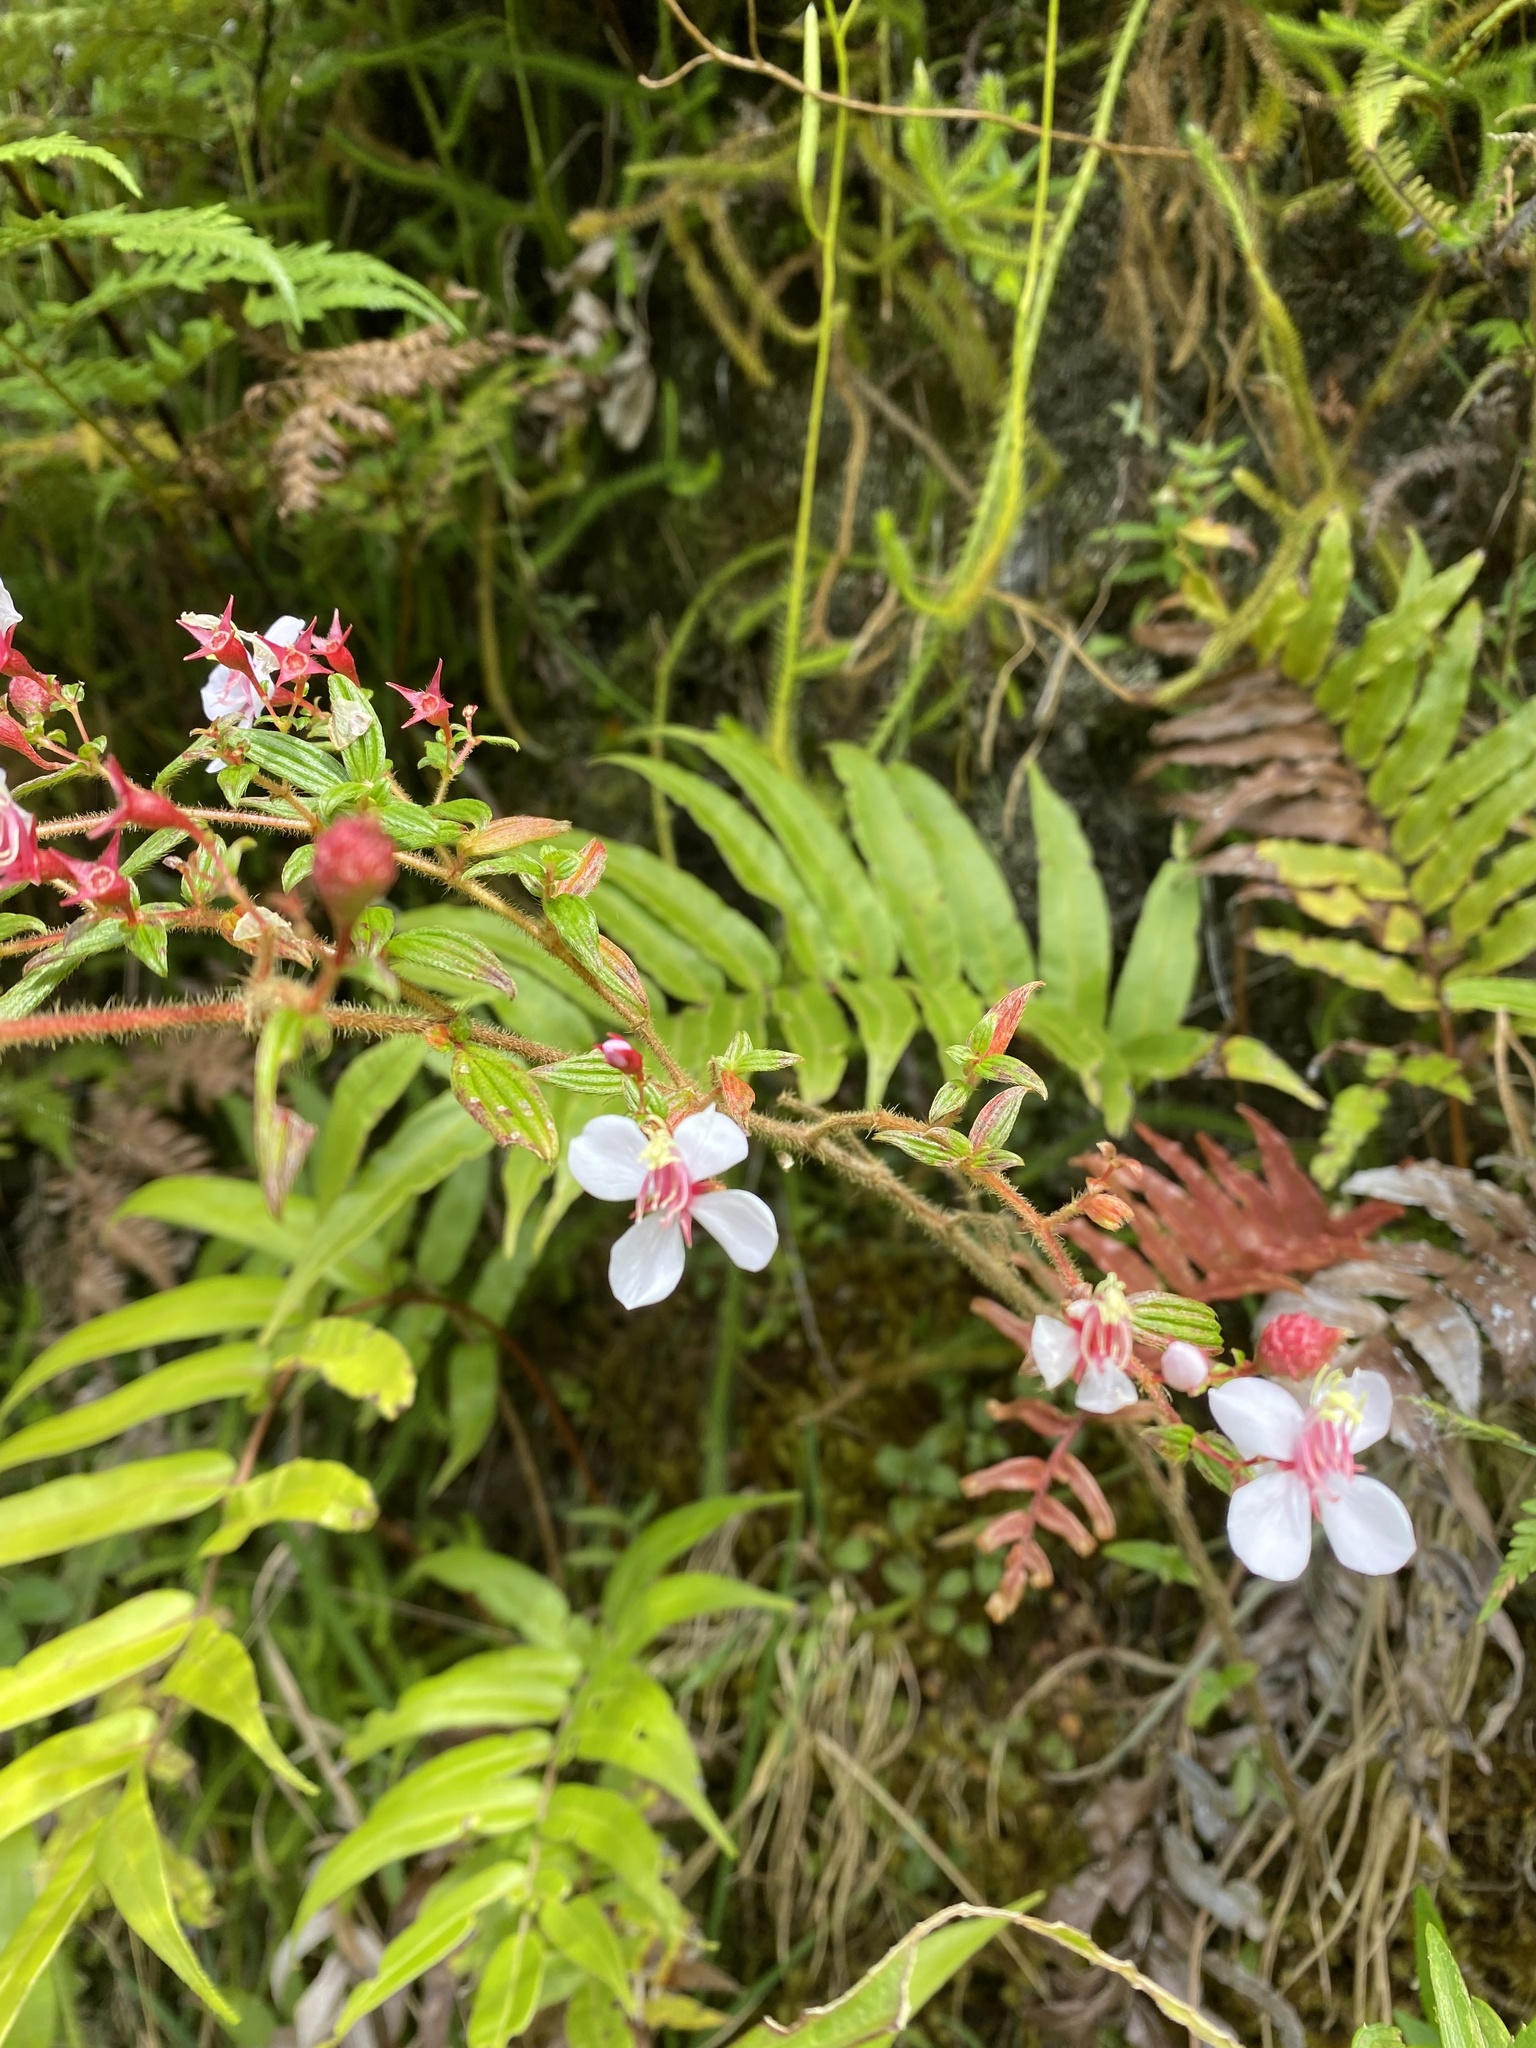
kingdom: Plantae
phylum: Tracheophyta
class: Magnoliopsida
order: Myrtales
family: Melastomataceae
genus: Monochaetum
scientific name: Monochaetum floribundum
